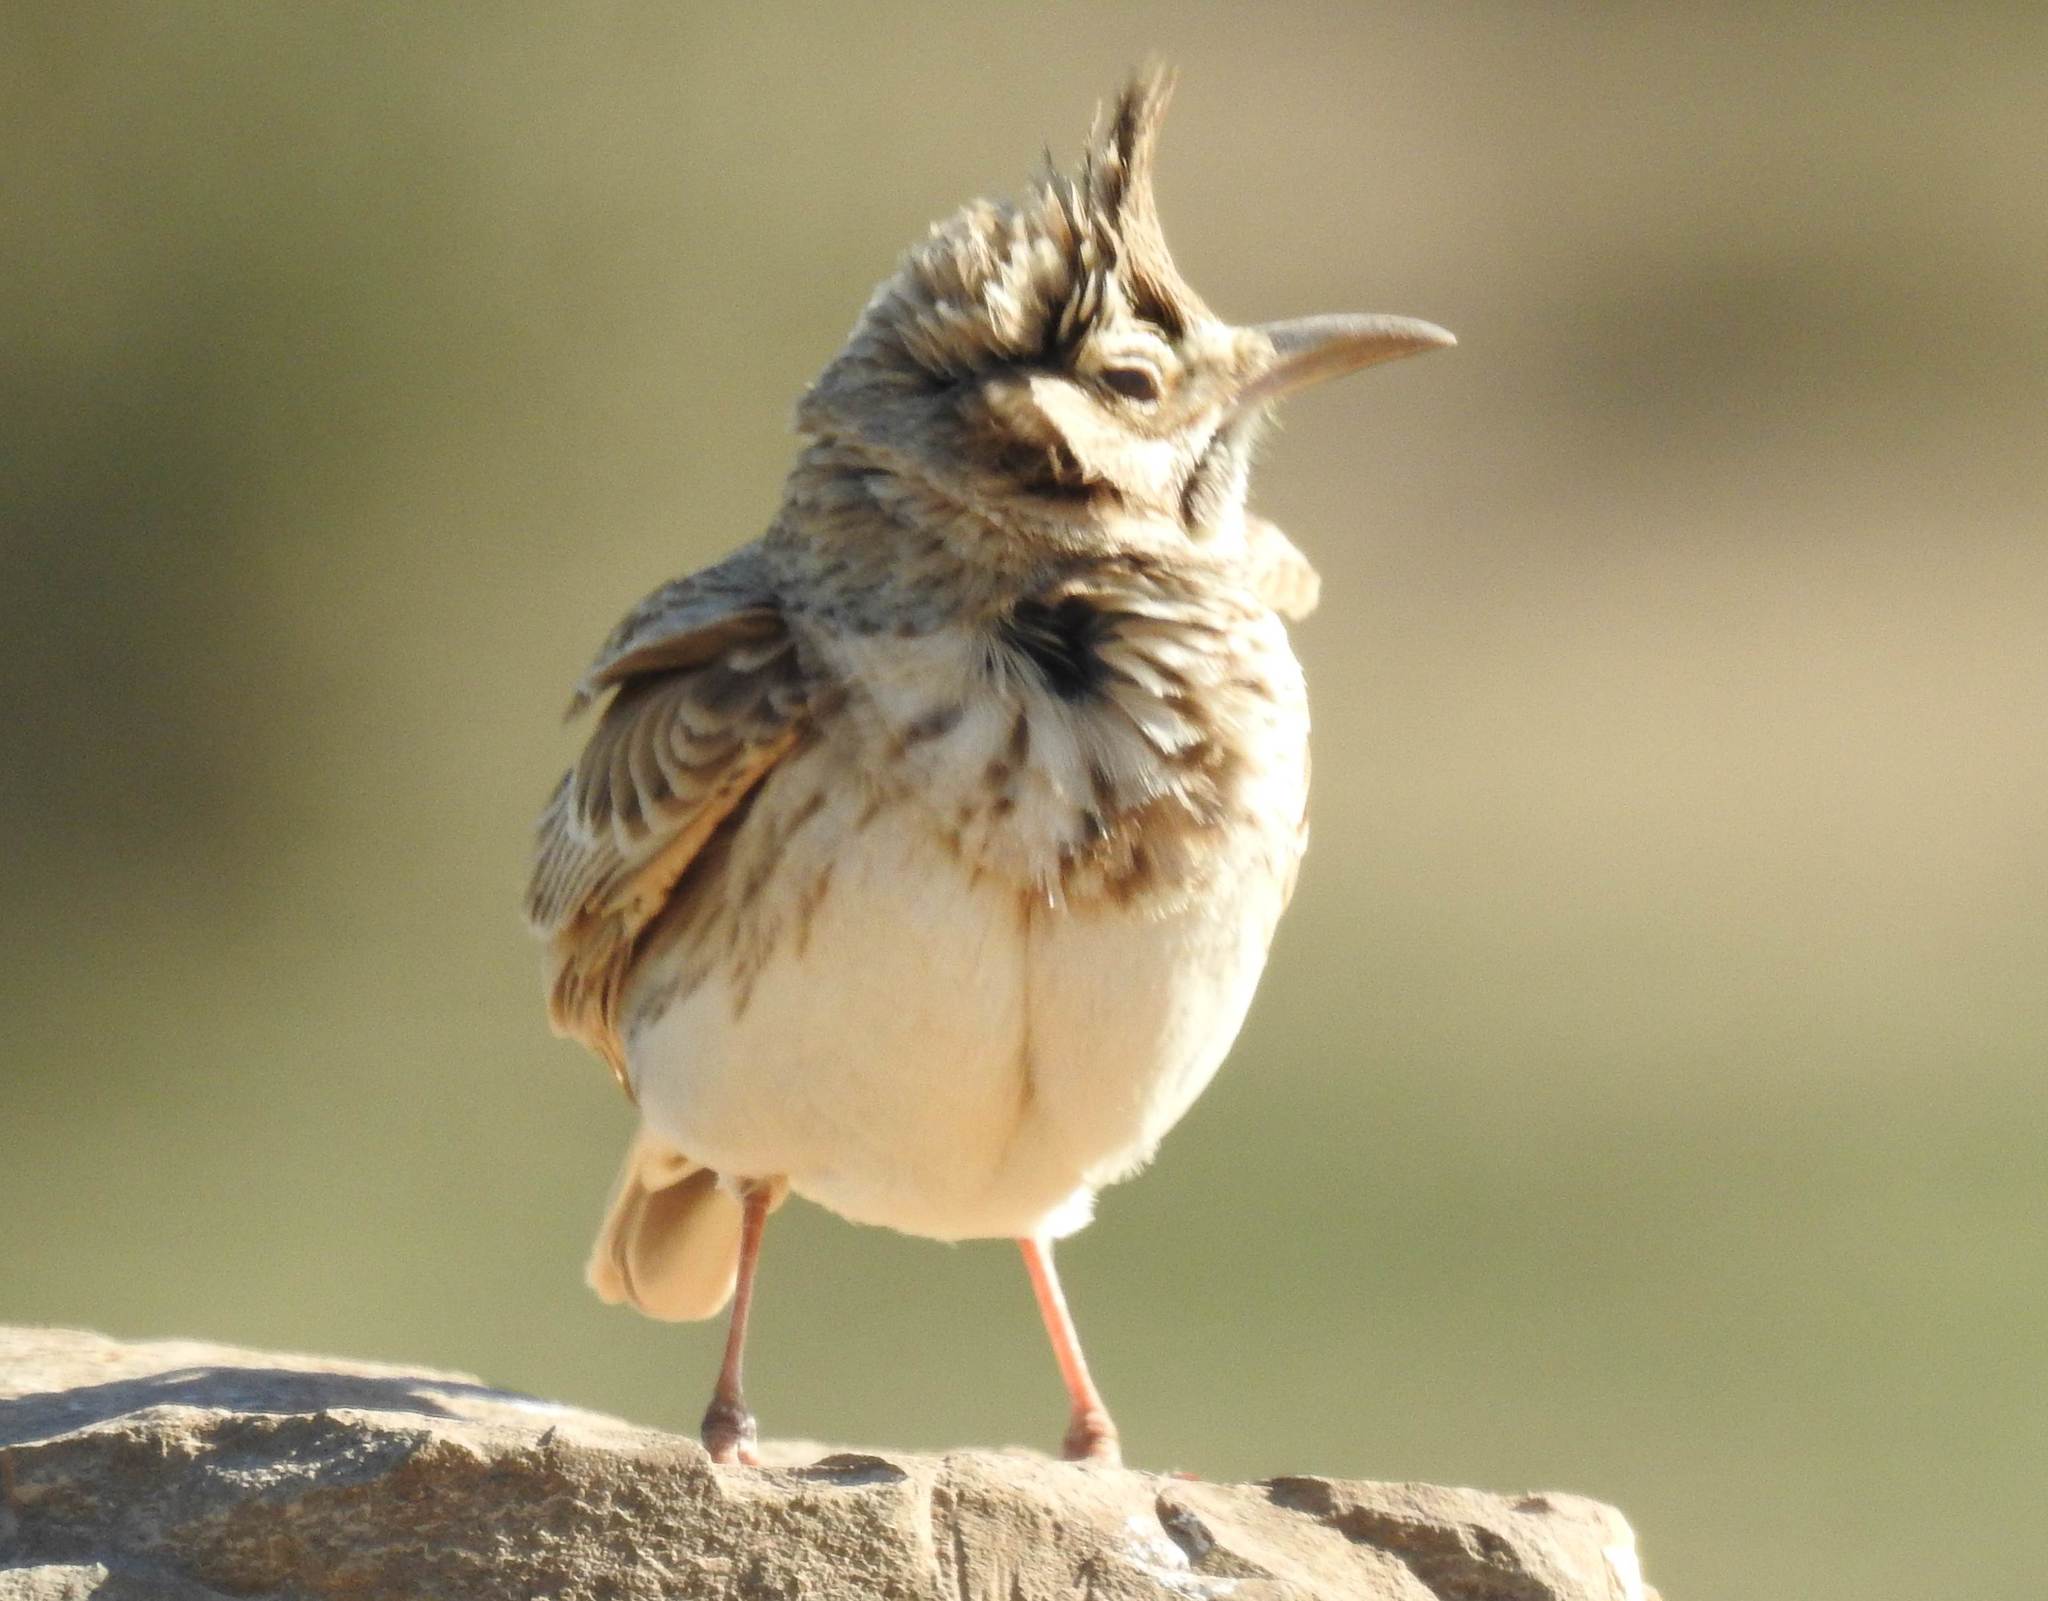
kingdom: Animalia
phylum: Chordata
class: Aves
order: Passeriformes
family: Alaudidae
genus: Galerida
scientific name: Galerida cristata
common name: Crested lark
